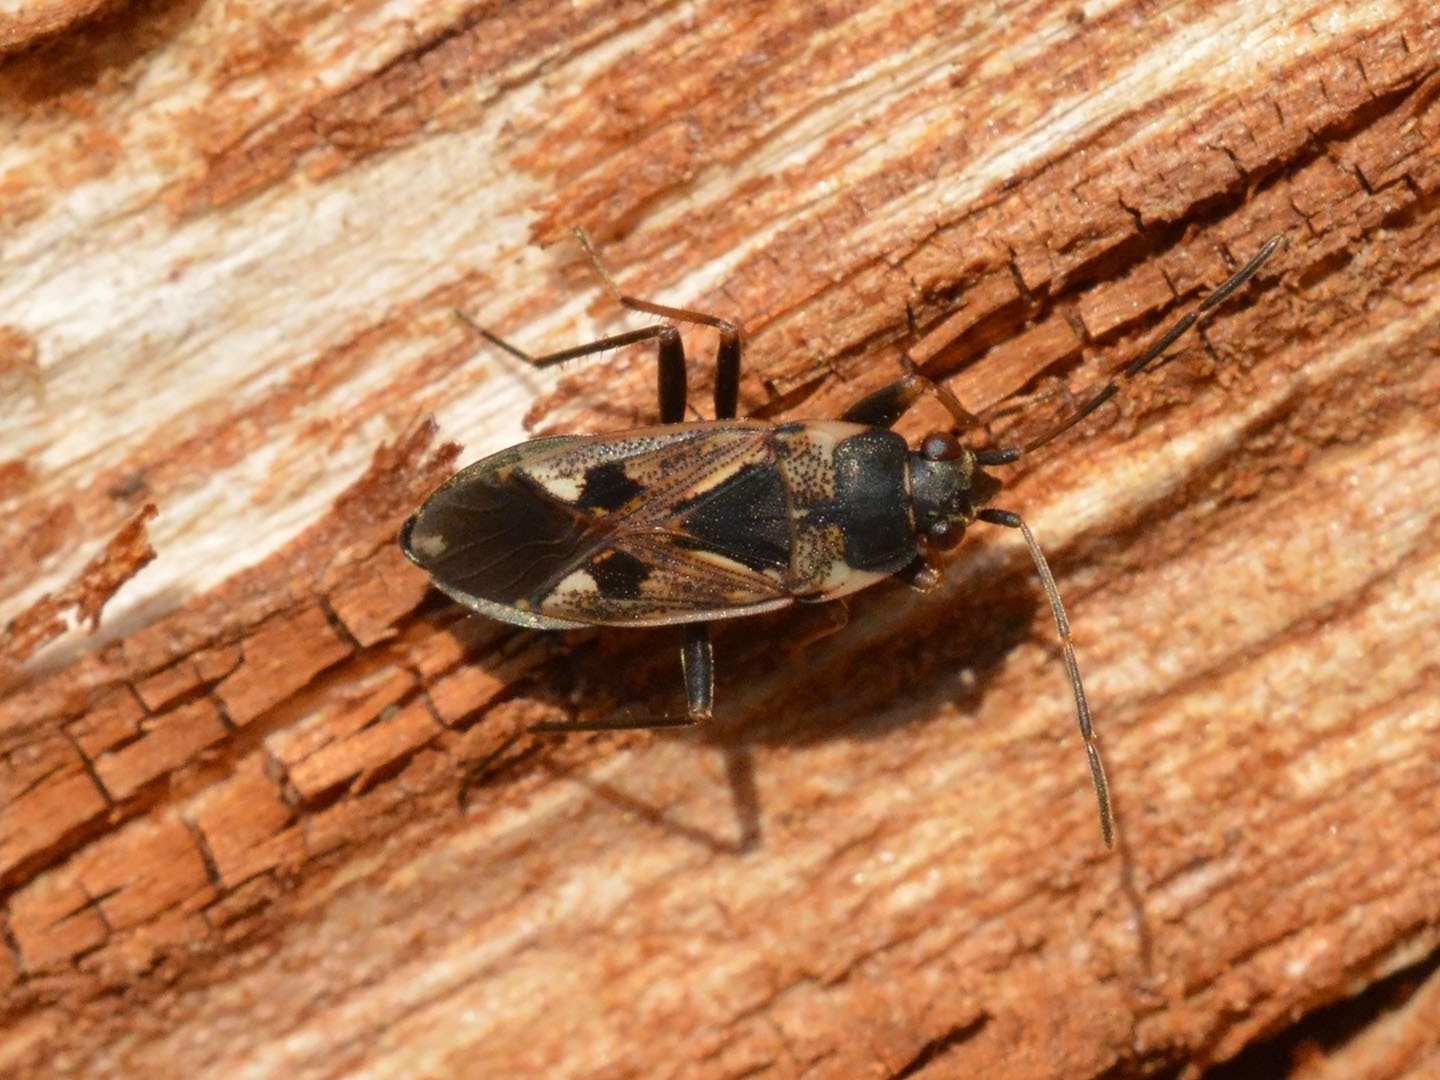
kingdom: Animalia
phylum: Arthropoda
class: Insecta
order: Hemiptera
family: Rhyparochromidae
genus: Rhyparochromus
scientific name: Rhyparochromus vulgaris
